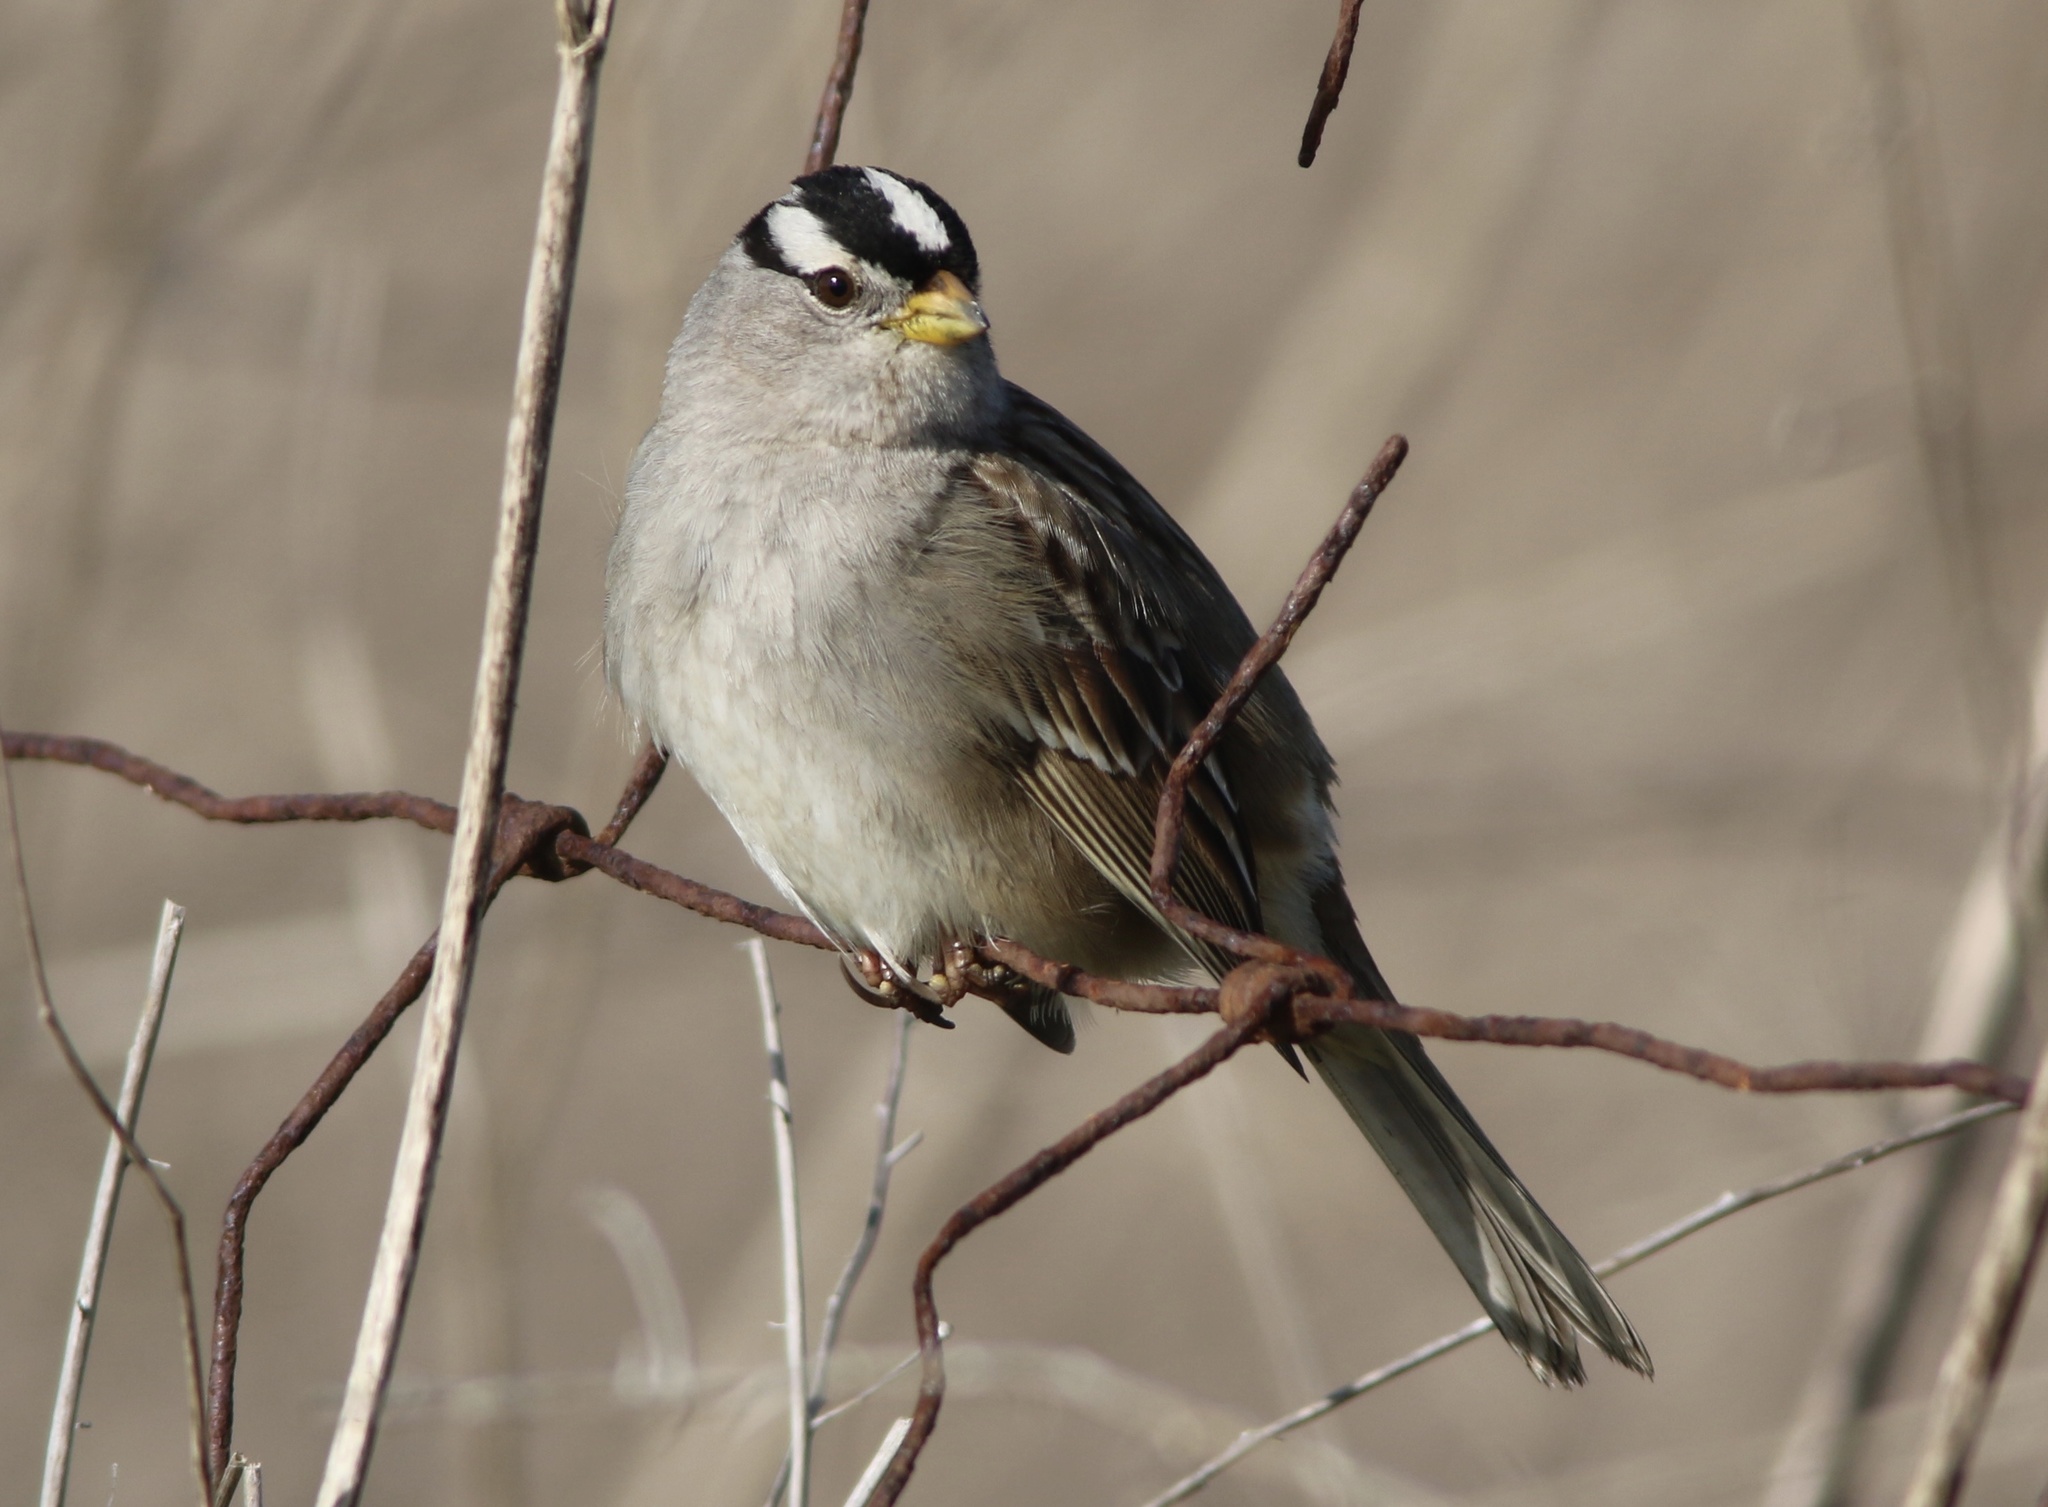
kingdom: Animalia
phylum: Chordata
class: Aves
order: Passeriformes
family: Passerellidae
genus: Zonotrichia
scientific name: Zonotrichia leucophrys
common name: White-crowned sparrow
